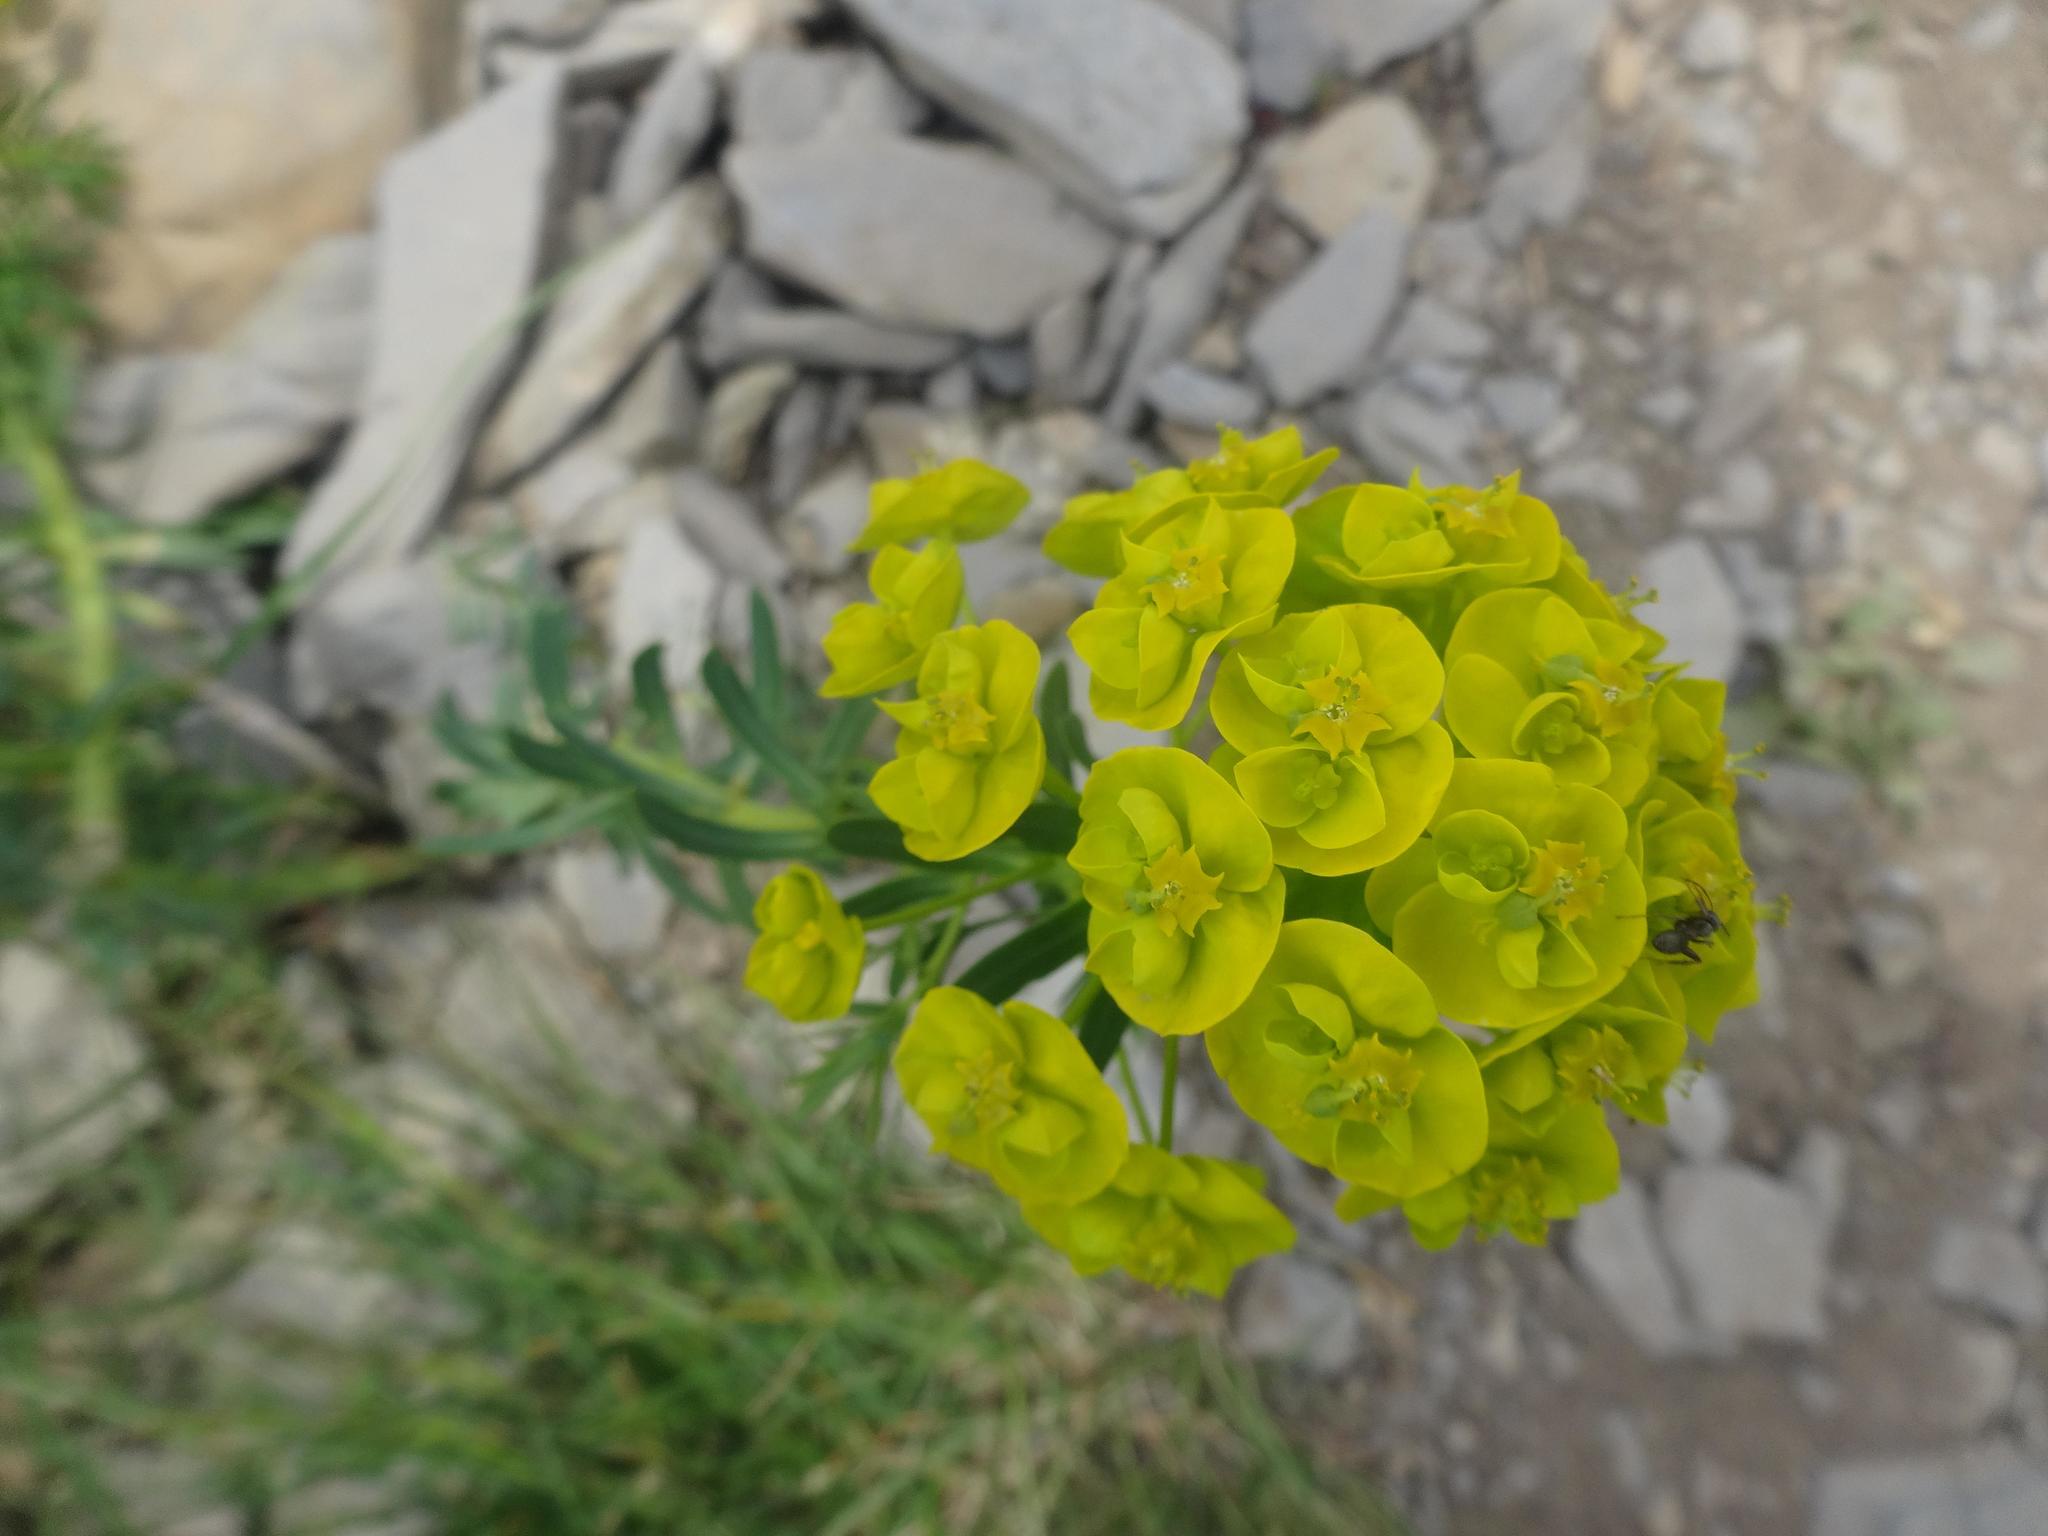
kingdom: Plantae
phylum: Tracheophyta
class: Magnoliopsida
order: Malpighiales
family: Euphorbiaceae
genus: Euphorbia
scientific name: Euphorbia cyparissias
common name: Cypress spurge
